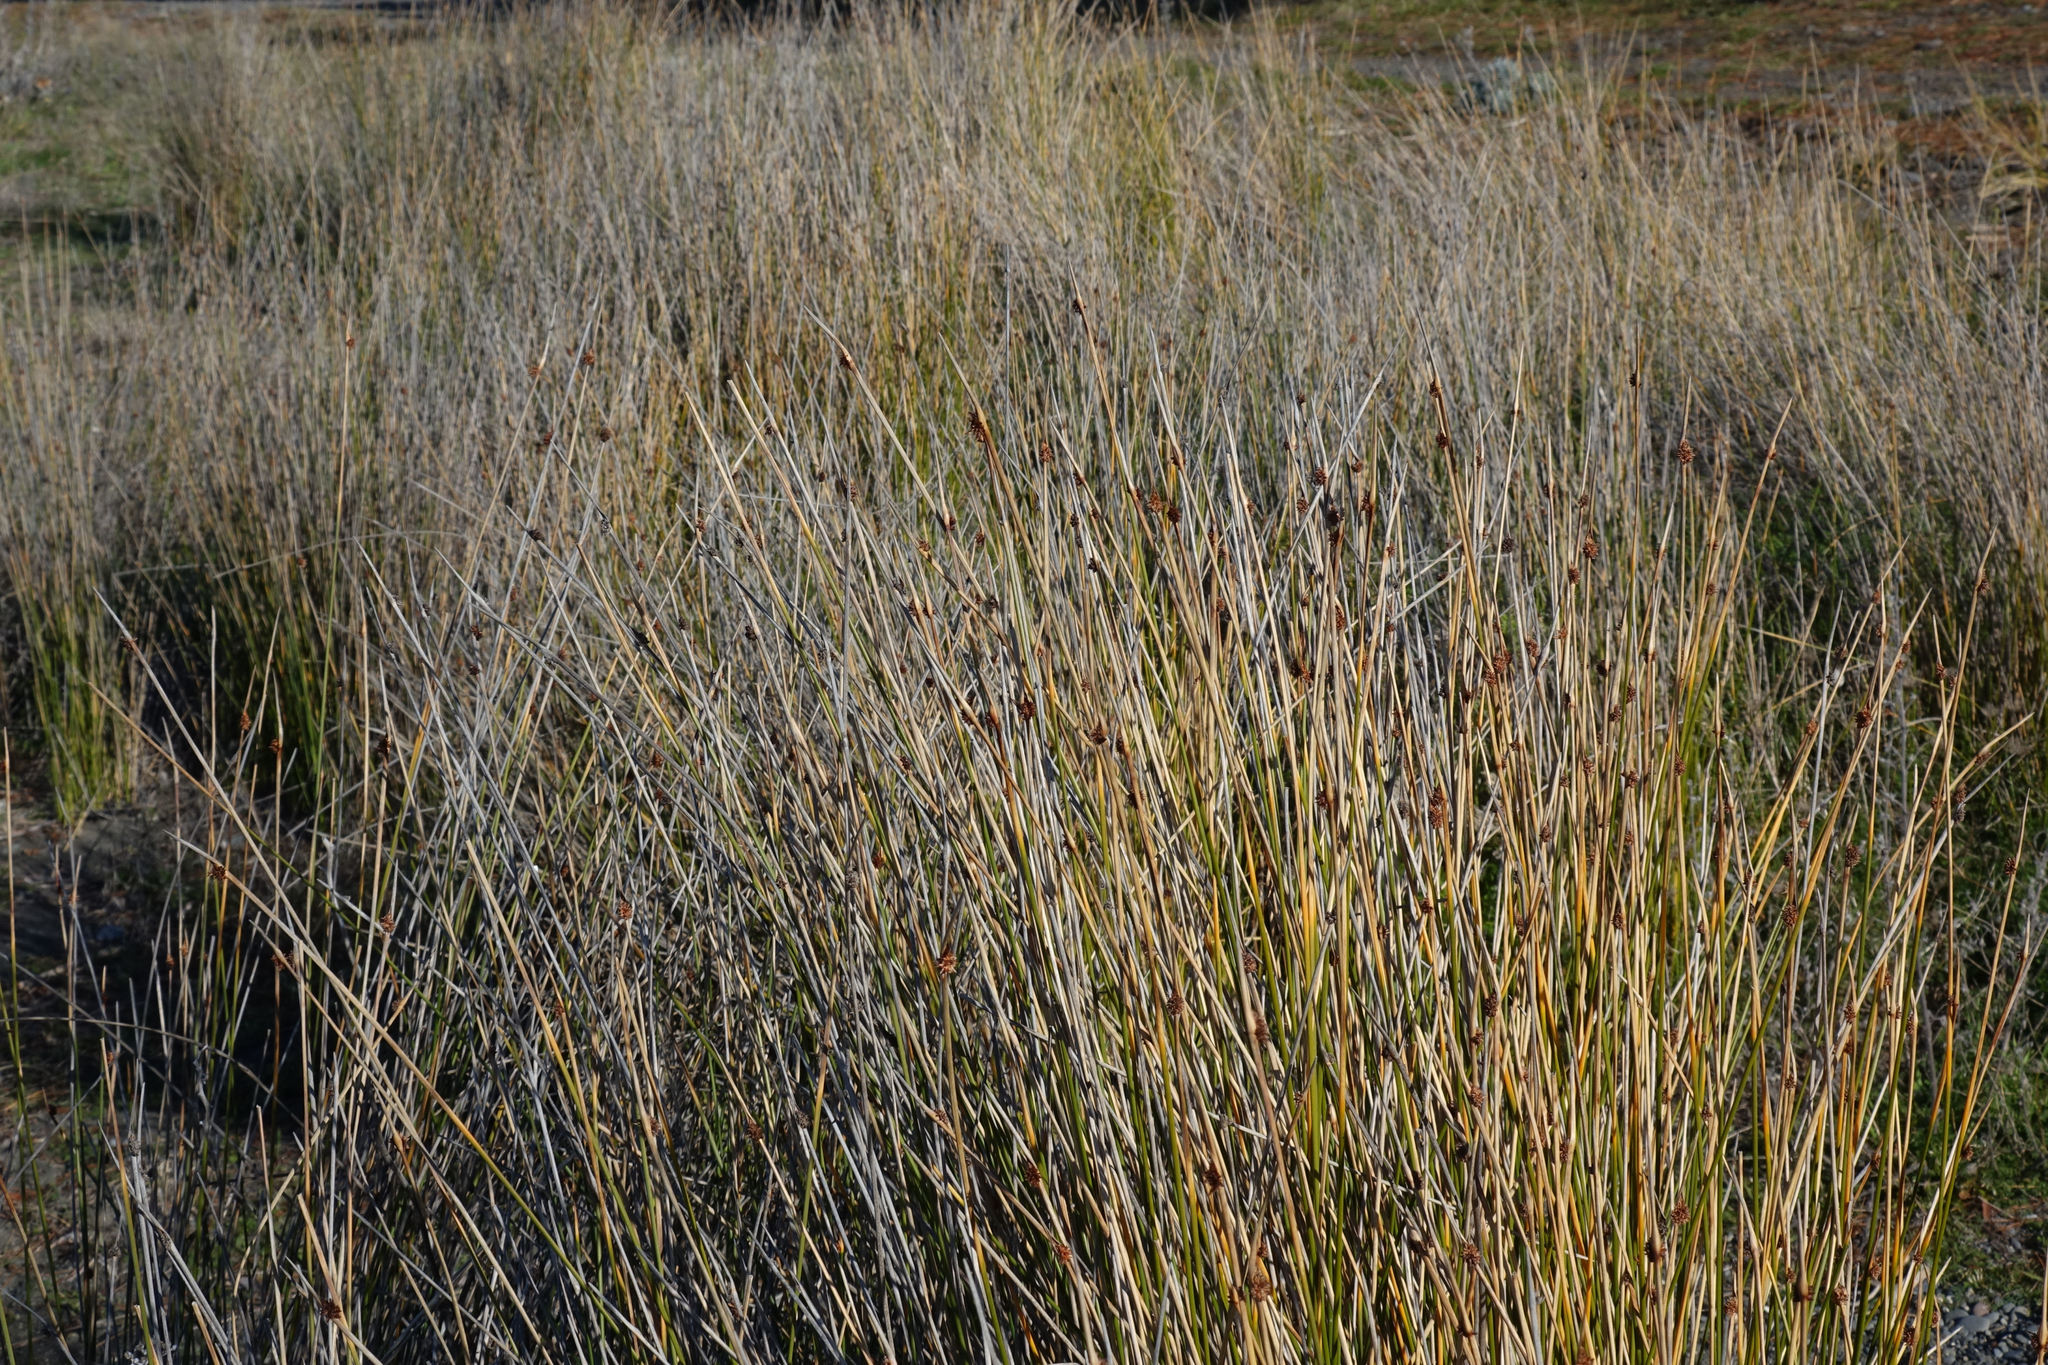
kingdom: Plantae
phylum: Tracheophyta
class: Liliopsida
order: Poales
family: Cyperaceae
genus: Ficinia
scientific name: Ficinia nodosa
